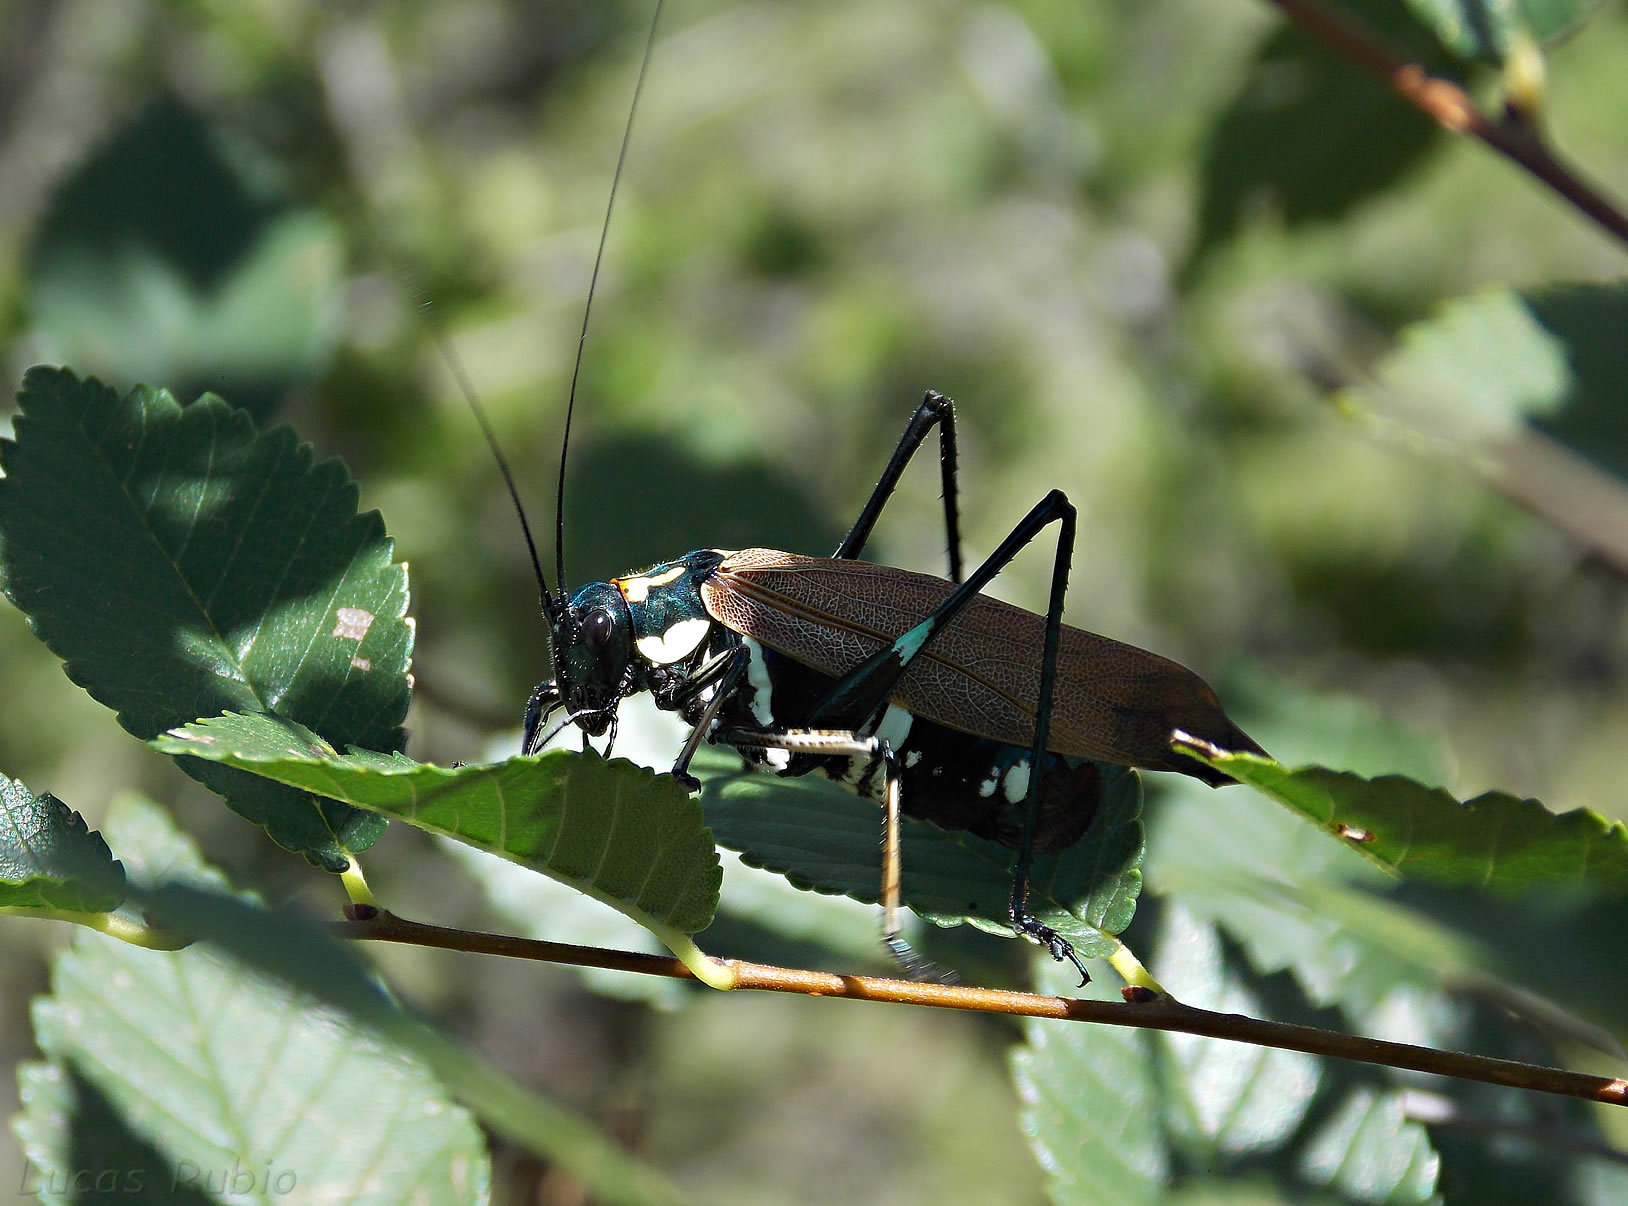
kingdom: Animalia
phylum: Arthropoda
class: Insecta
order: Orthoptera
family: Tettigoniidae
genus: Scaphura
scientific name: Scaphura elegans
